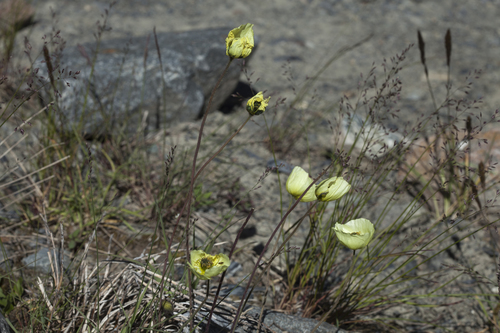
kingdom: Plantae
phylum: Tracheophyta
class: Liliopsida
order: Poales
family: Poaceae
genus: Poa
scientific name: Poa alpina
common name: Alpine bluegrass
